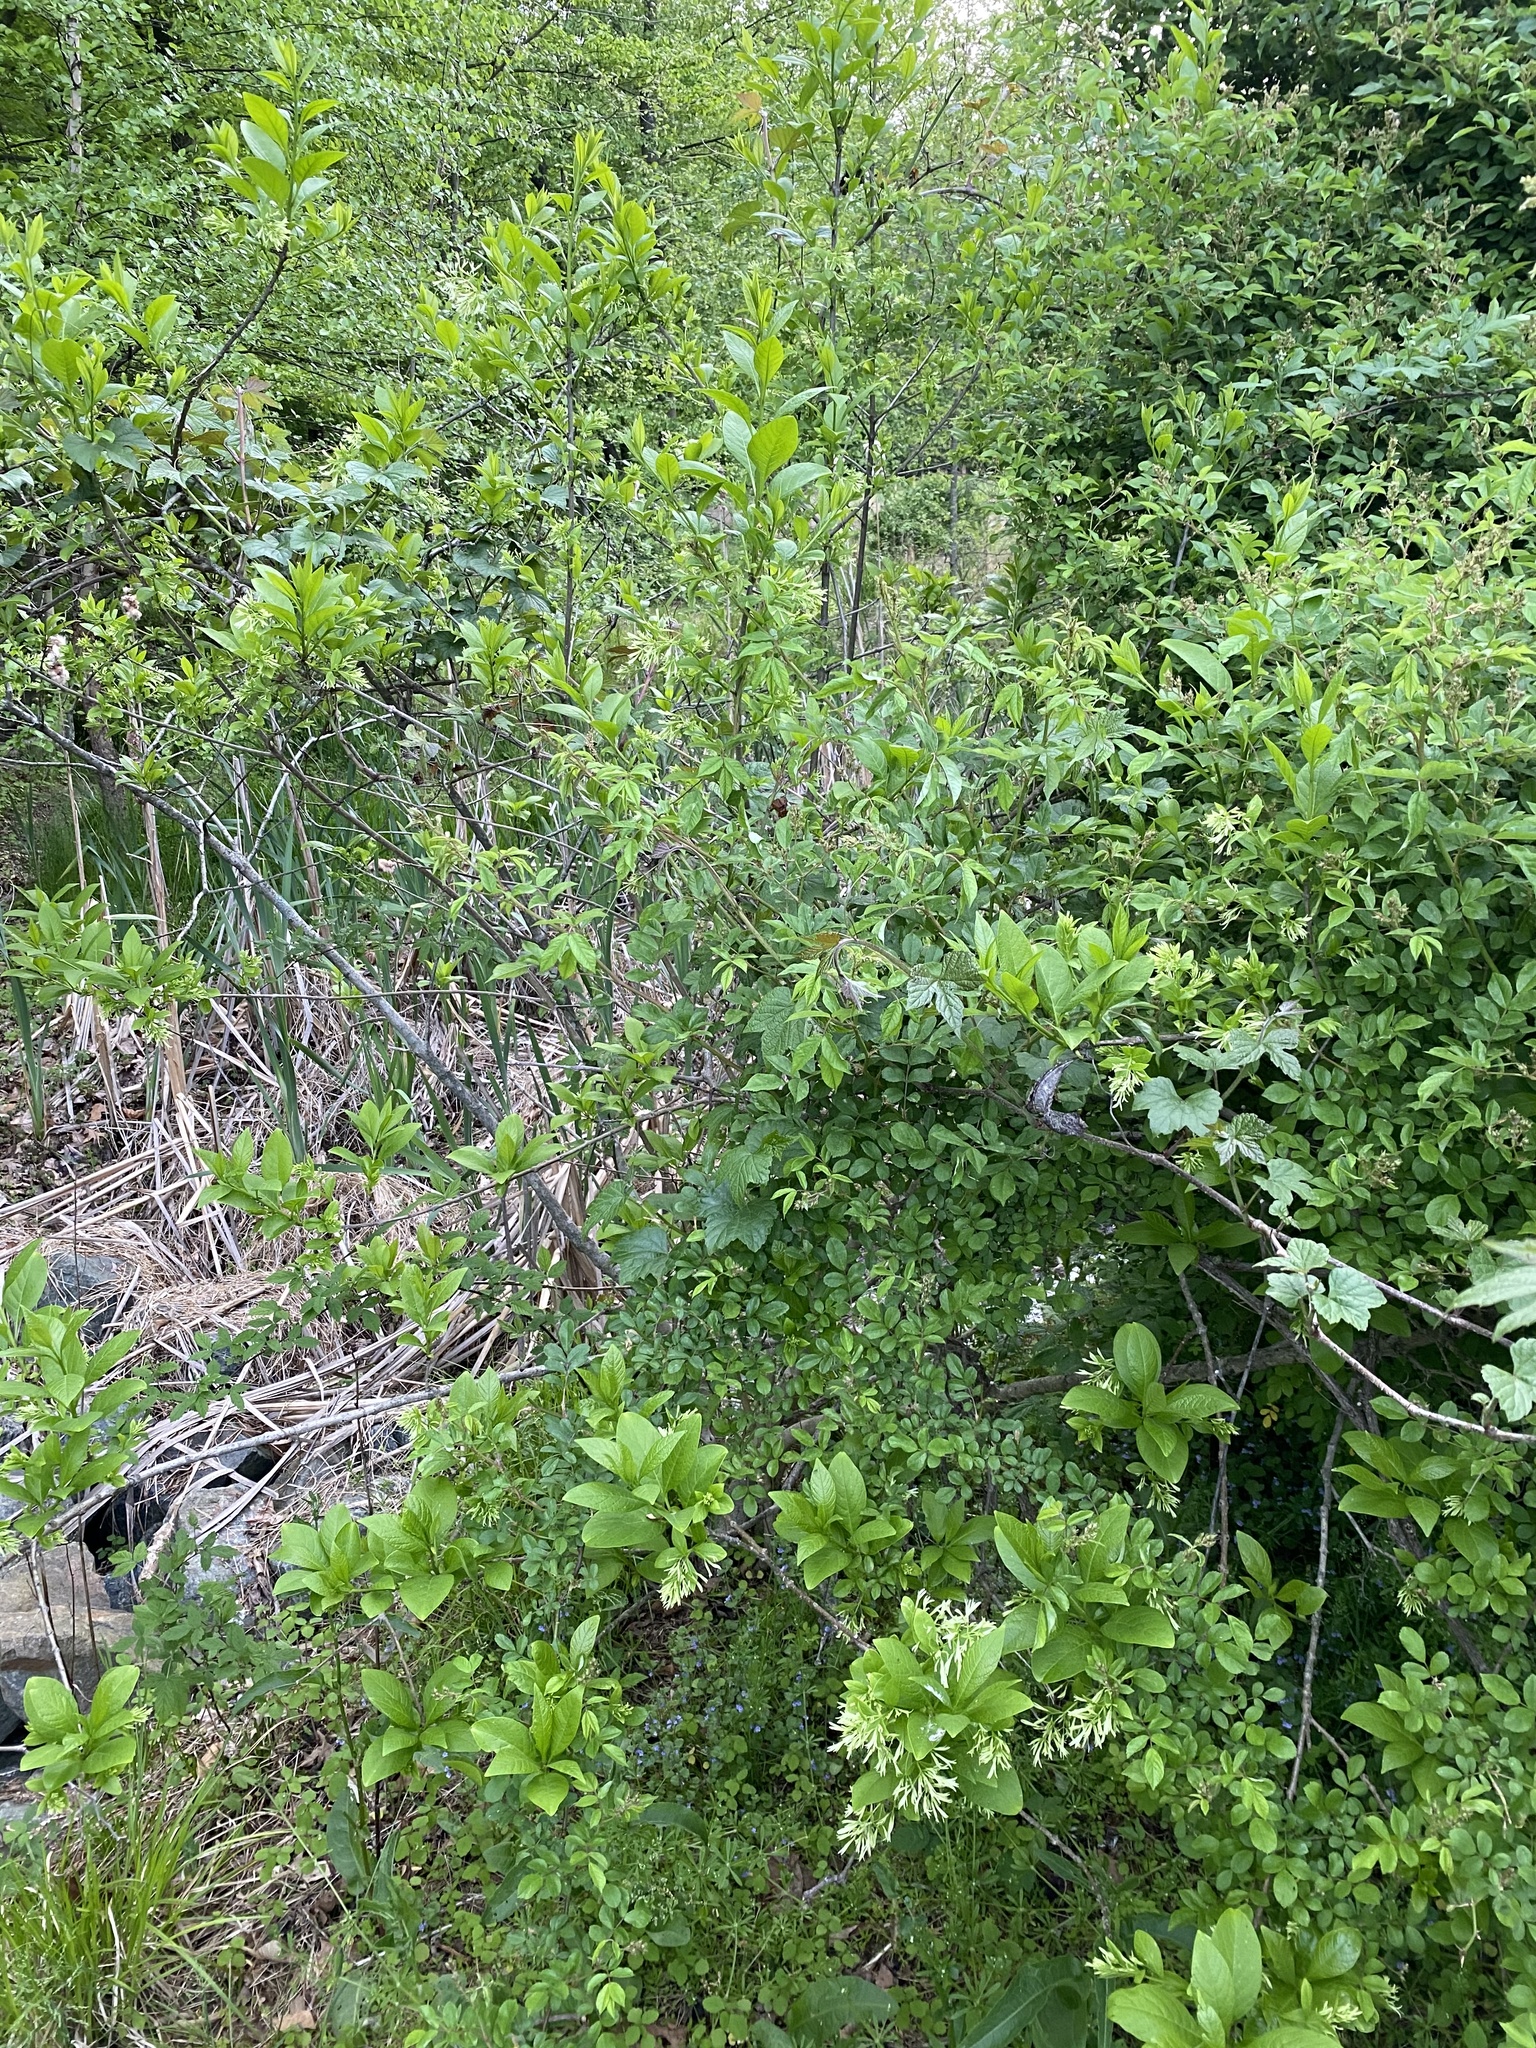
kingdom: Plantae
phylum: Tracheophyta
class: Magnoliopsida
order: Lamiales
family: Oleaceae
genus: Chionanthus
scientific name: Chionanthus virginicus
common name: American fringetree
